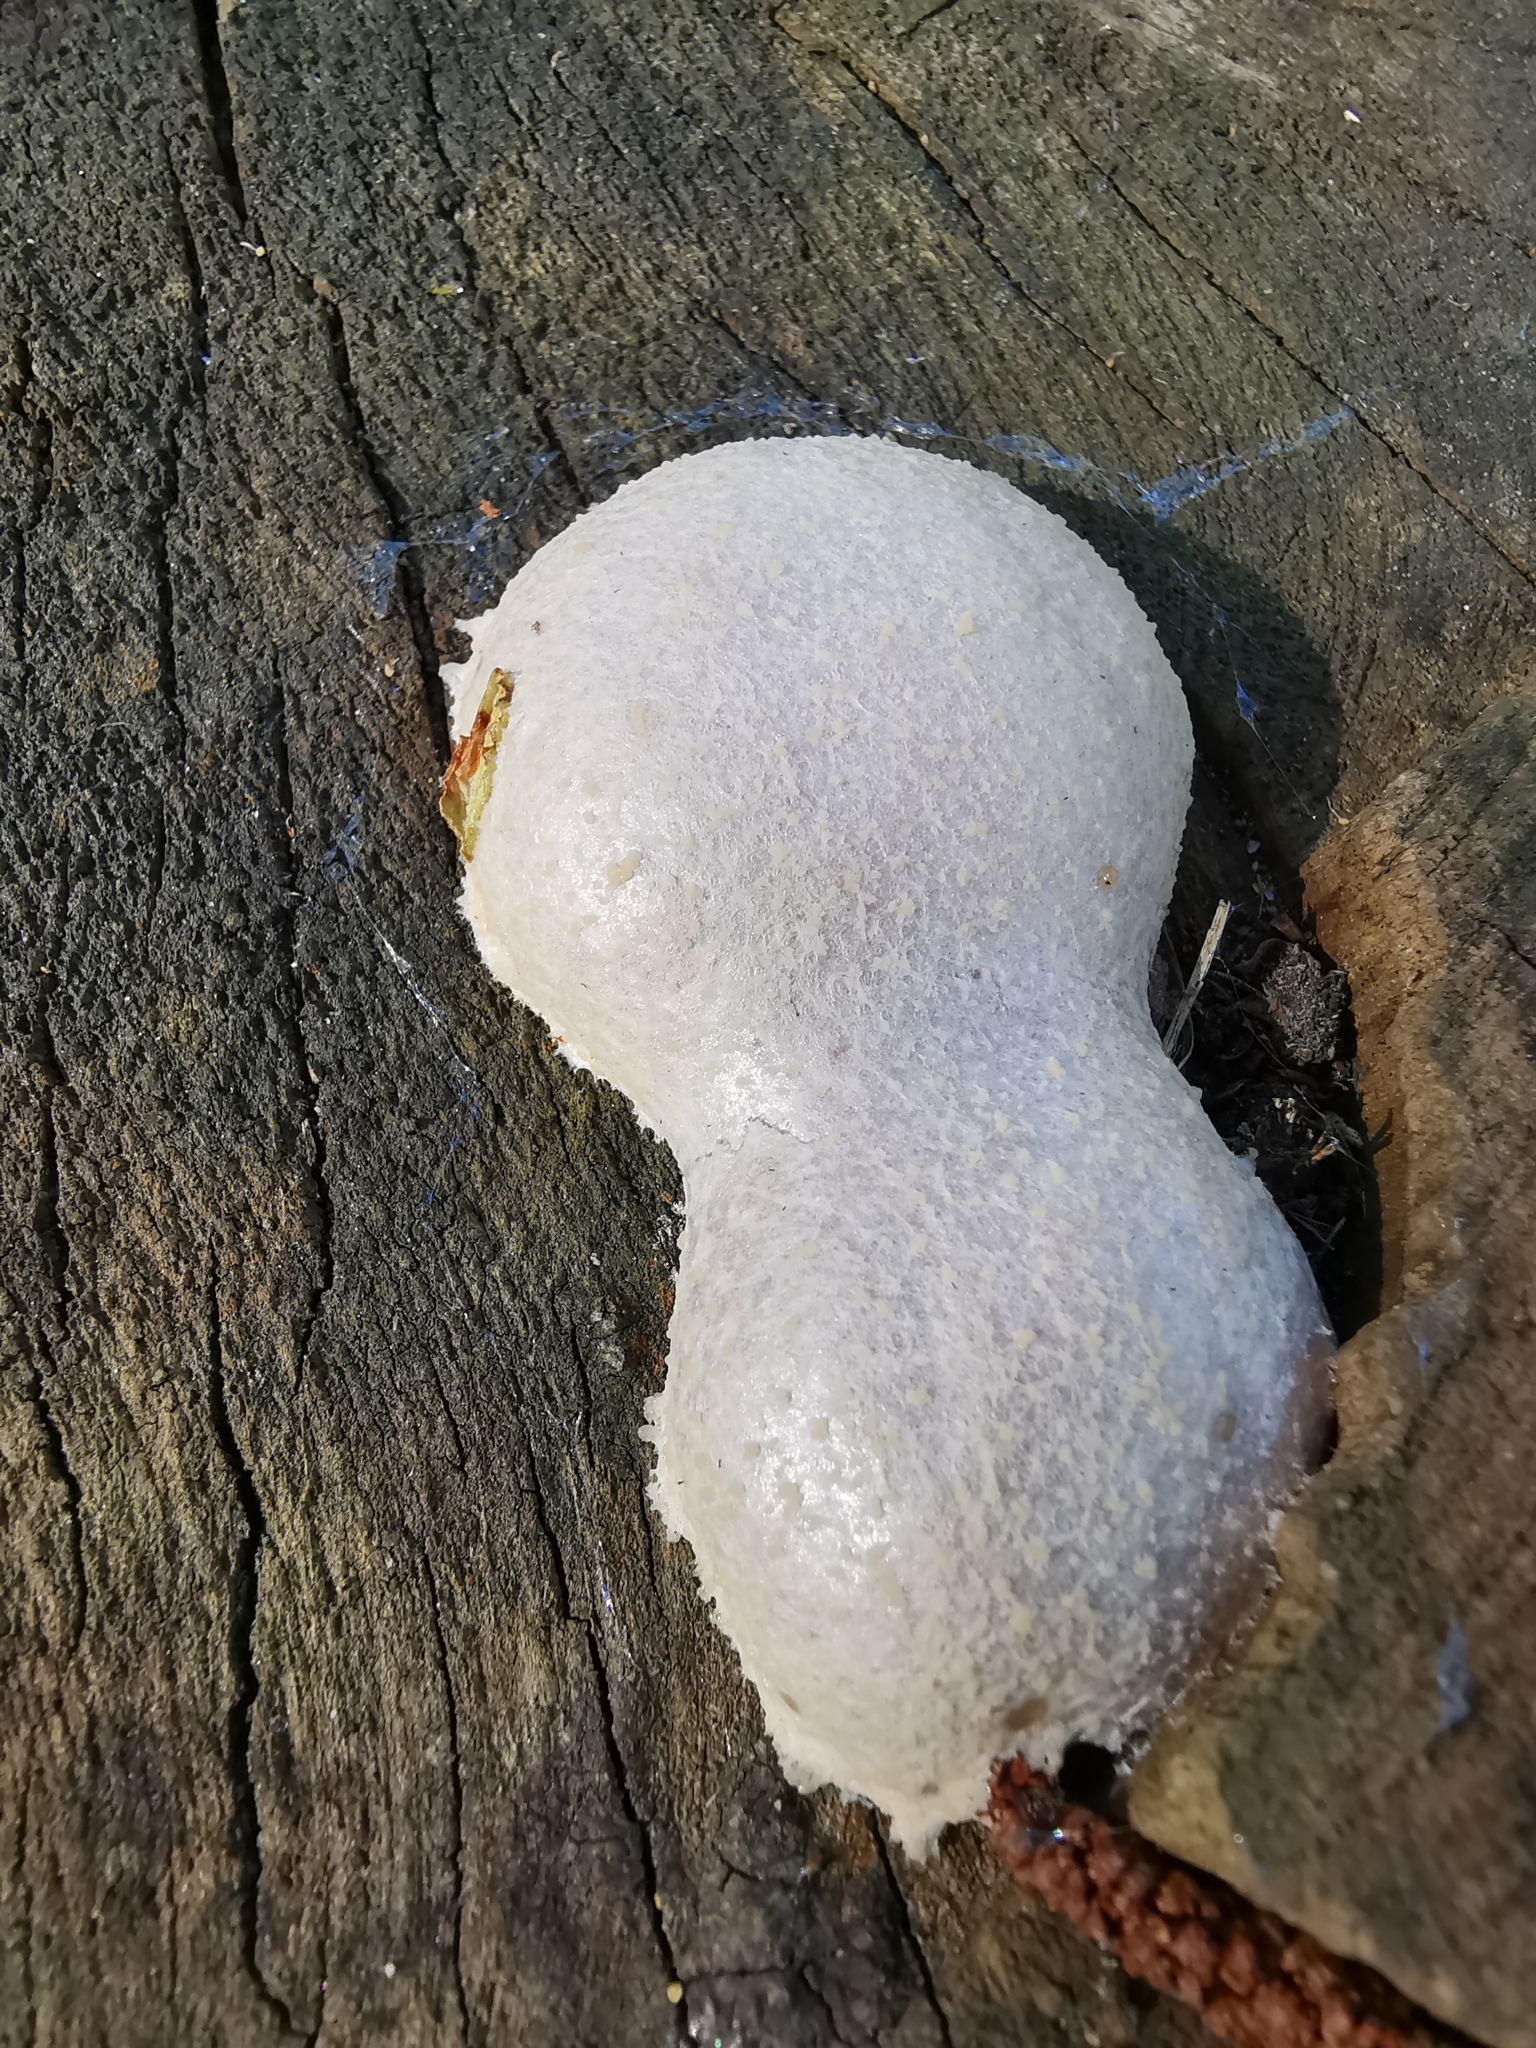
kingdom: Protozoa
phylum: Mycetozoa
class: Myxomycetes
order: Cribrariales
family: Tubiferaceae
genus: Reticularia
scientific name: Reticularia lycoperdon
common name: False puffball
